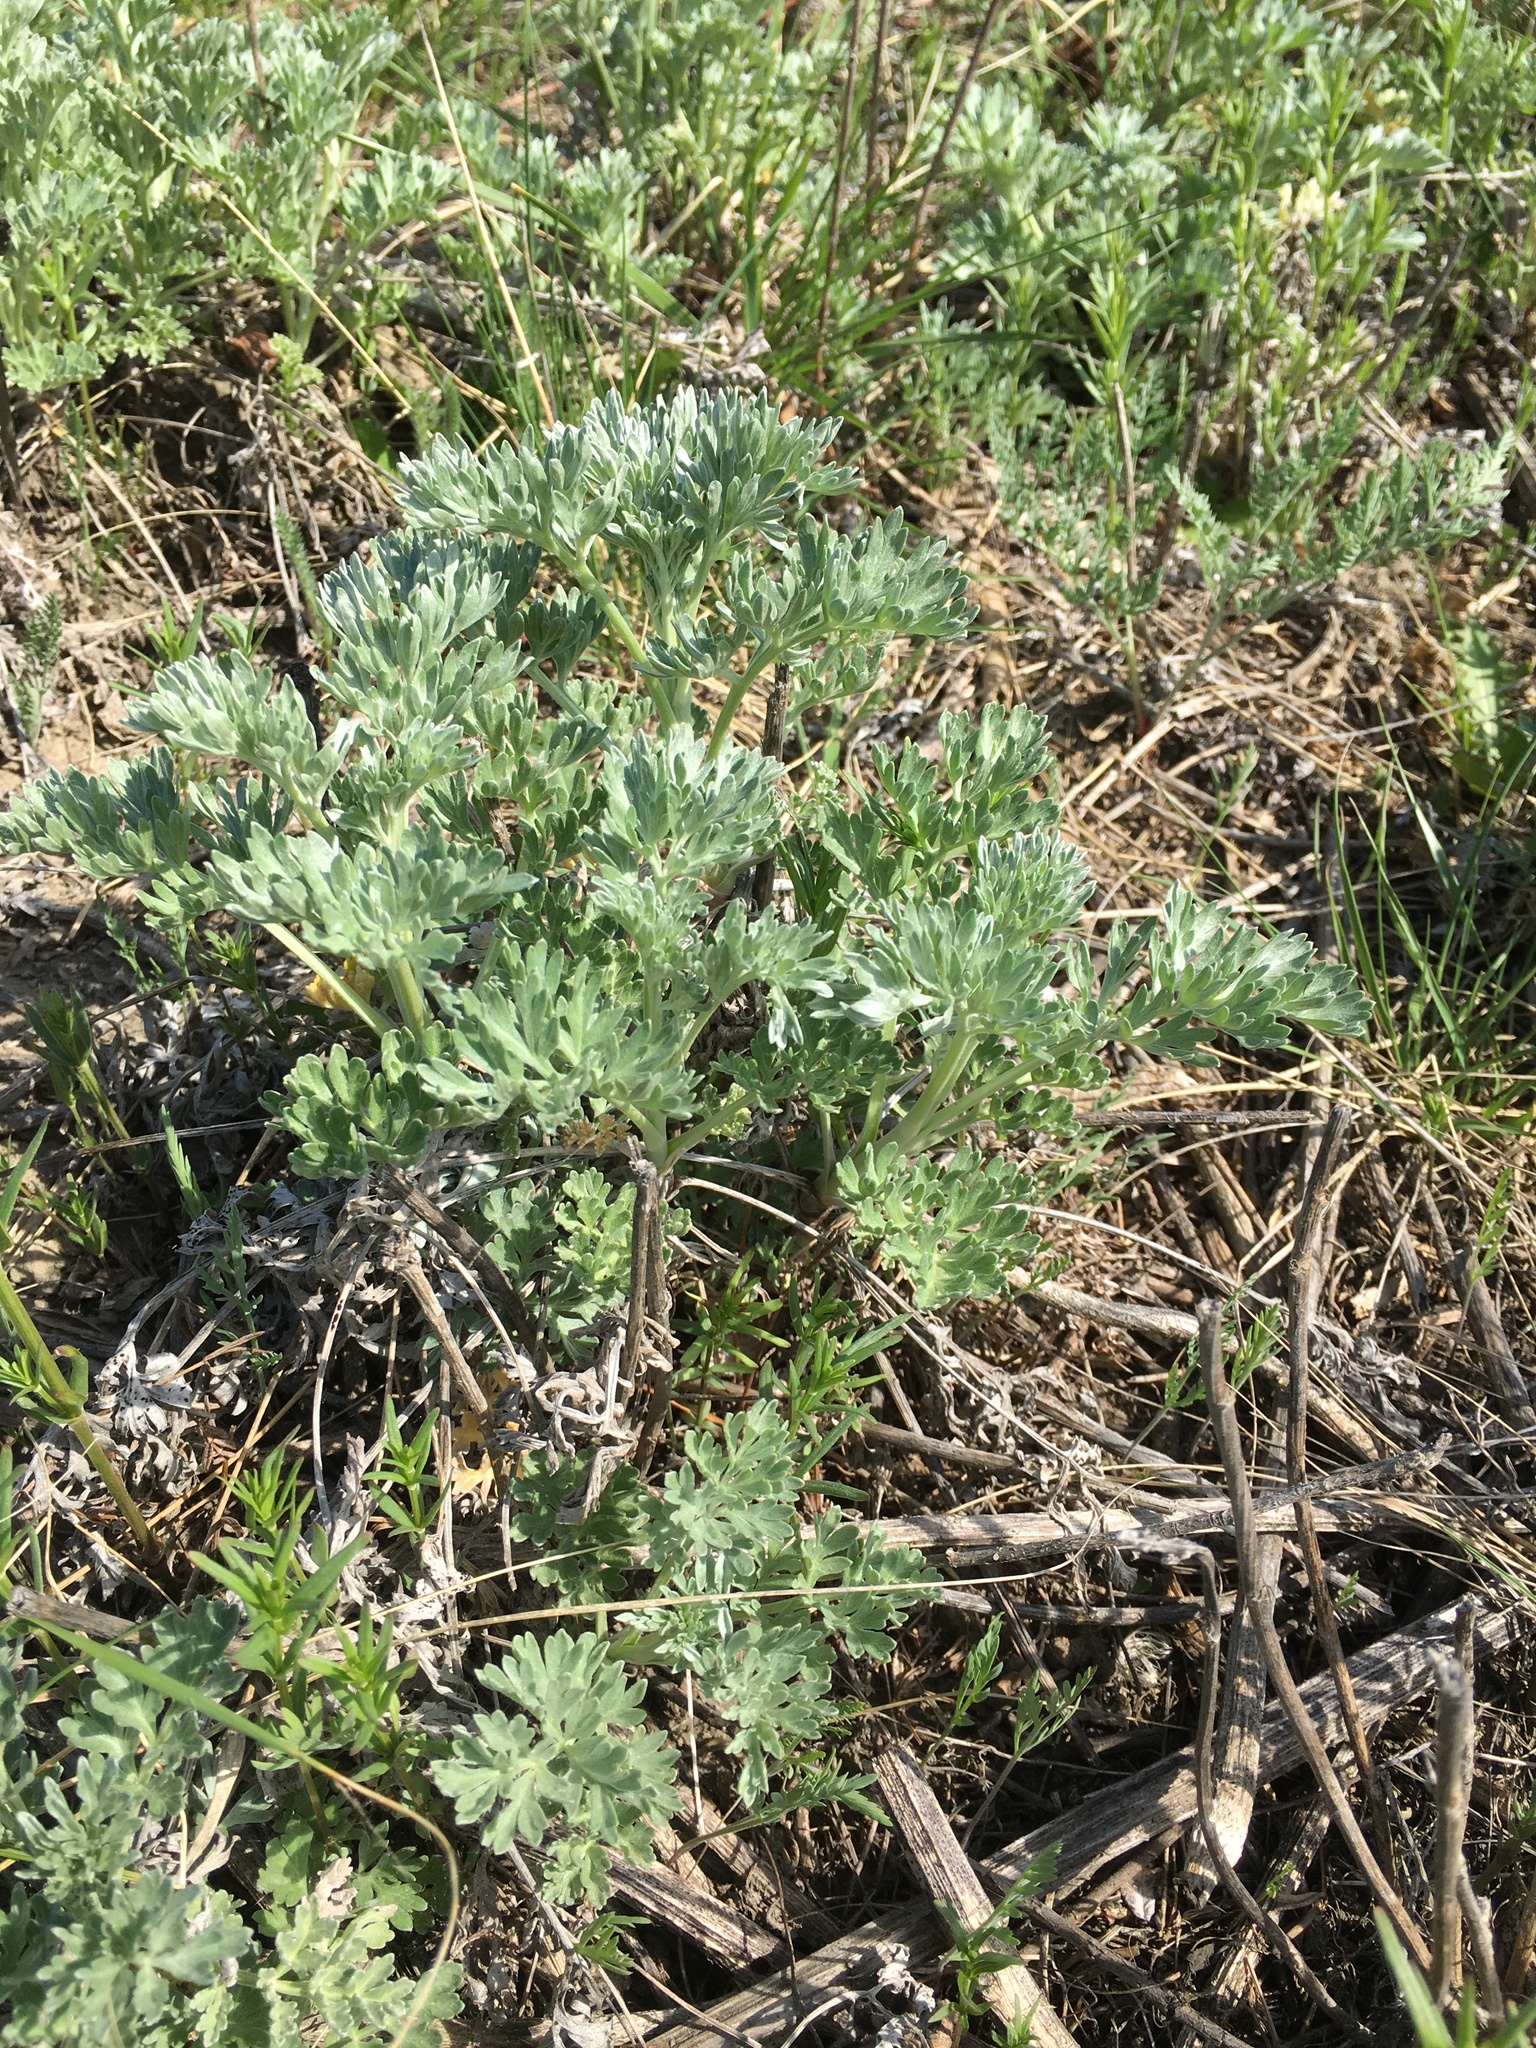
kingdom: Plantae
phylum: Tracheophyta
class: Magnoliopsida
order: Asterales
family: Asteraceae
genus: Artemisia
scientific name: Artemisia absinthium
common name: Wormwood
